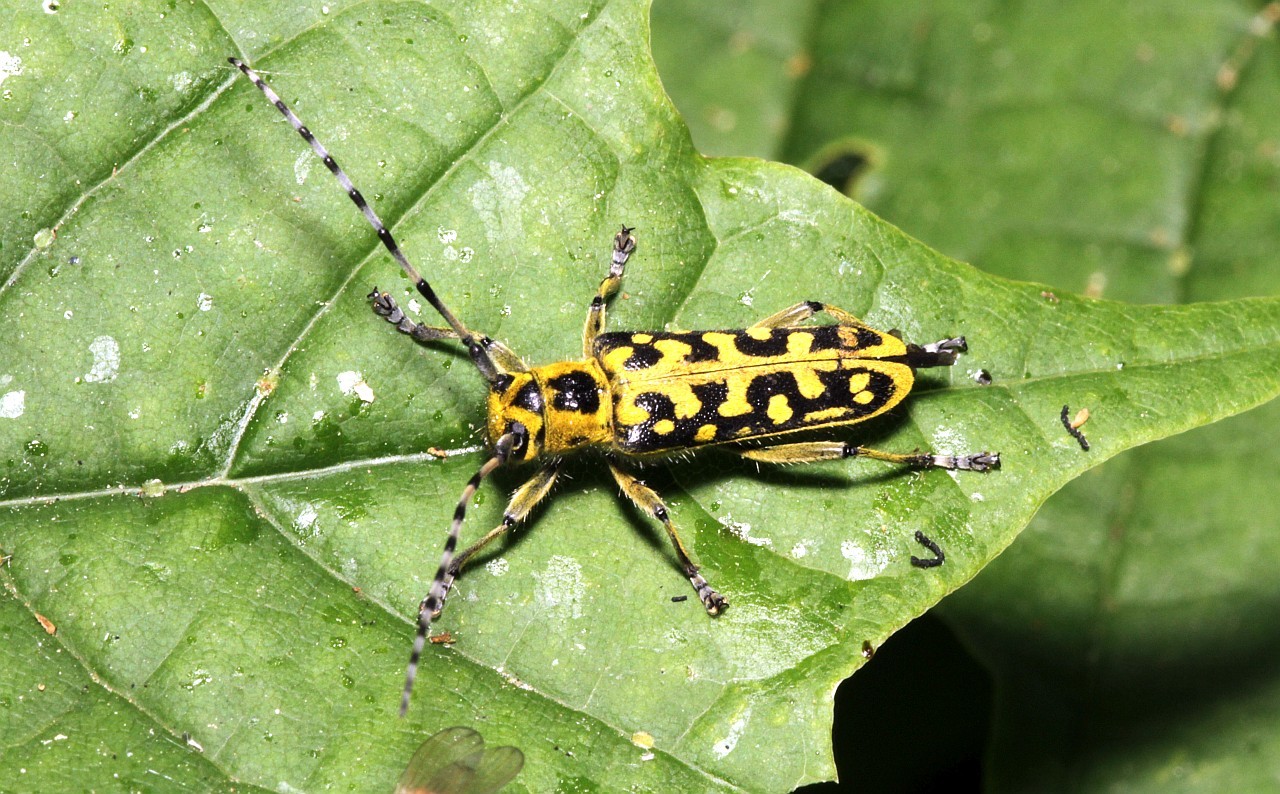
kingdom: Animalia
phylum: Arthropoda
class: Insecta
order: Coleoptera
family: Cerambycidae
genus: Saperda
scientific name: Saperda scalaris
